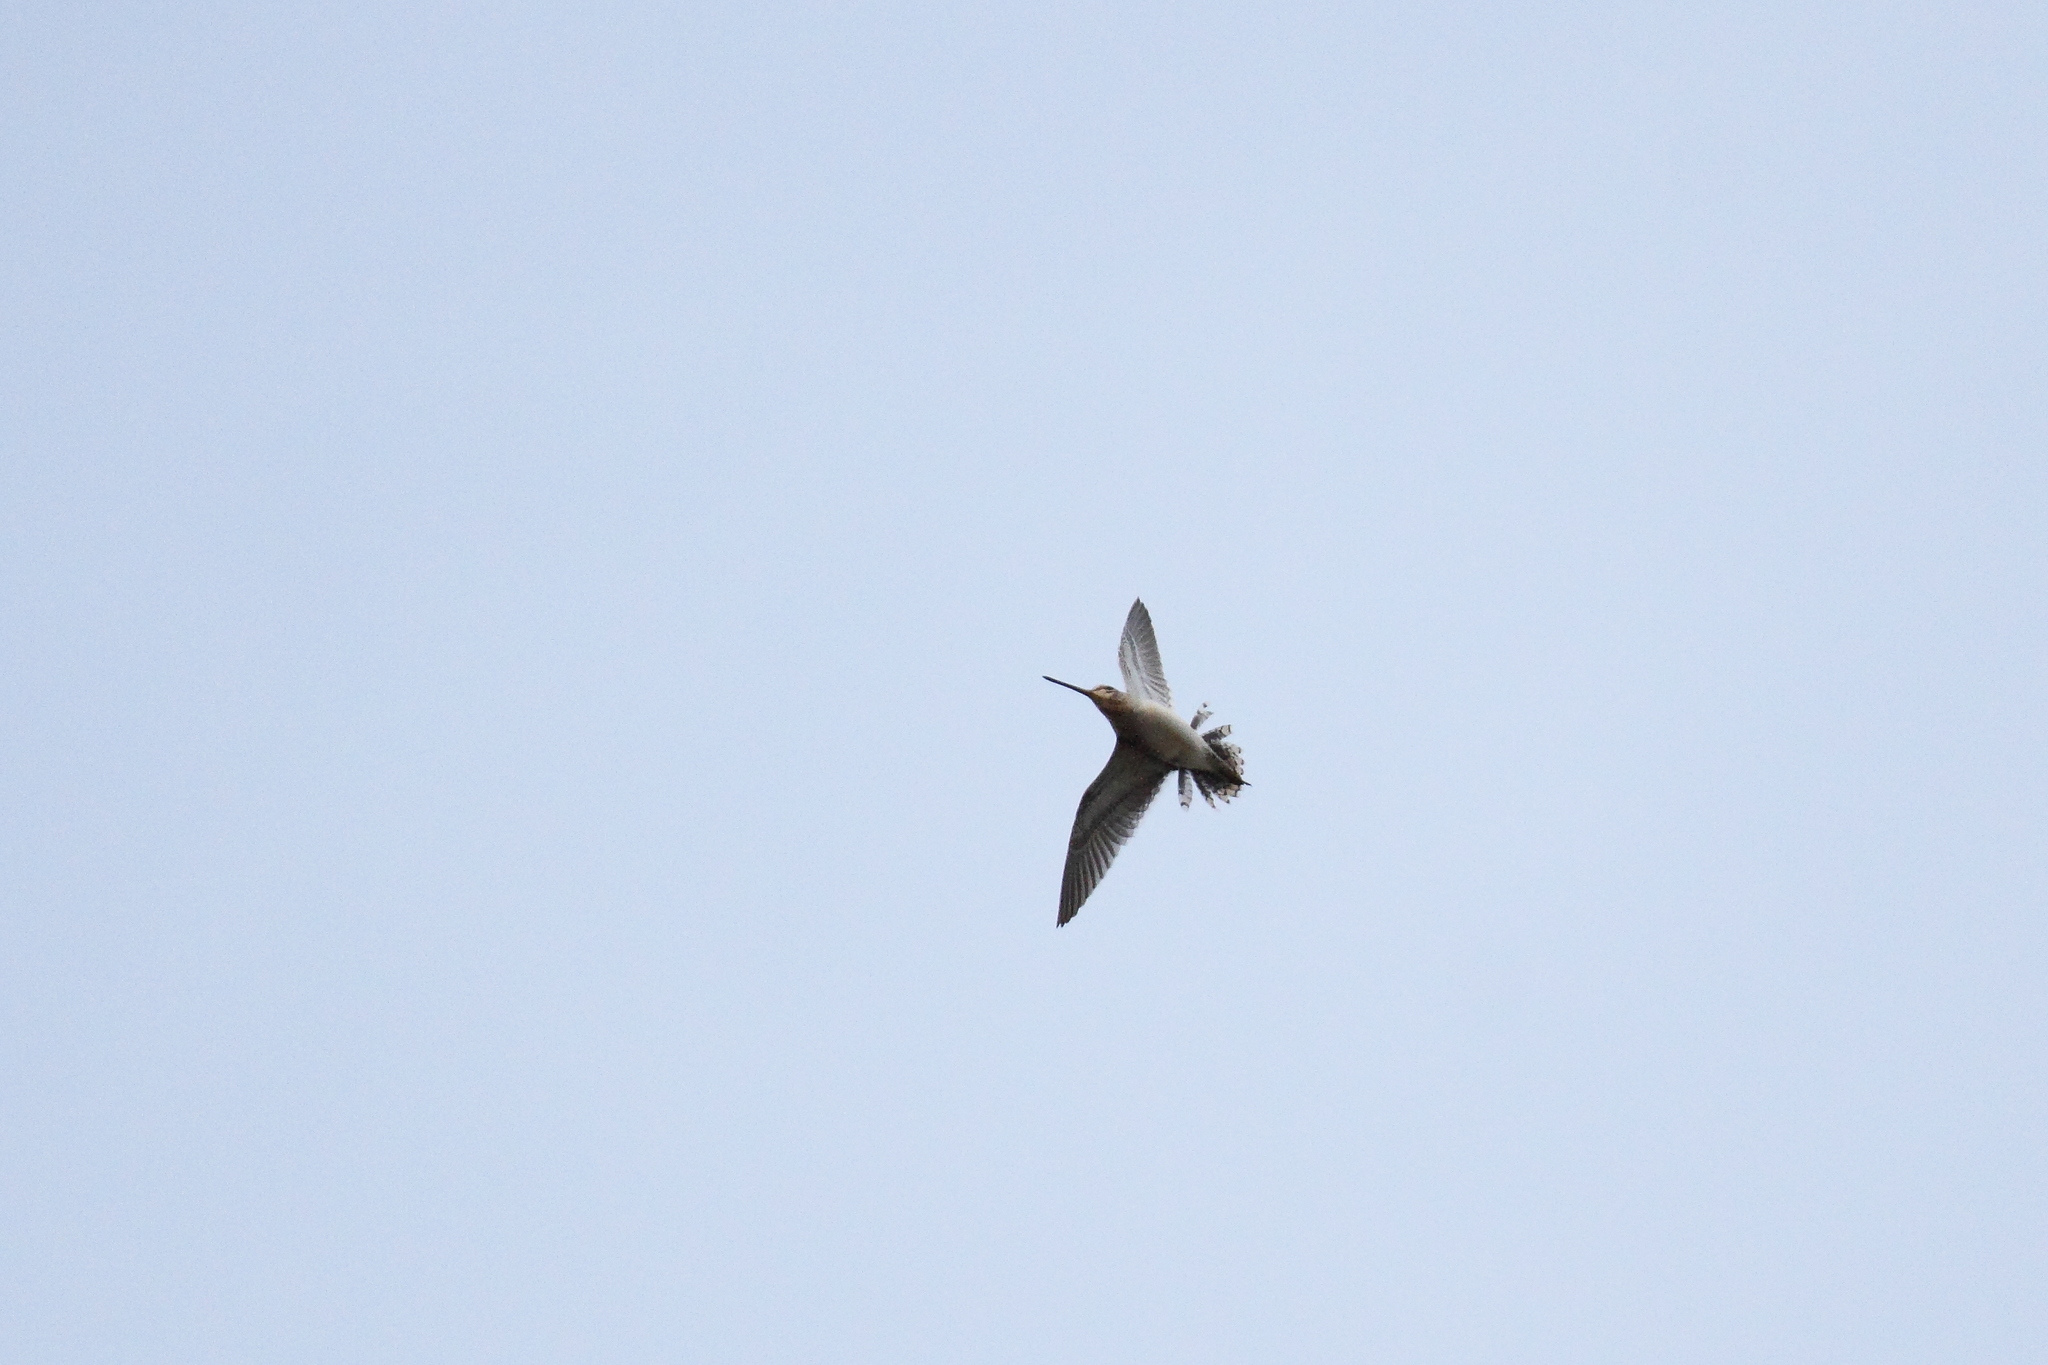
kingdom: Animalia
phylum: Chordata
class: Aves
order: Charadriiformes
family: Scolopacidae
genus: Gallinago
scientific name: Gallinago gallinago
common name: Common snipe
